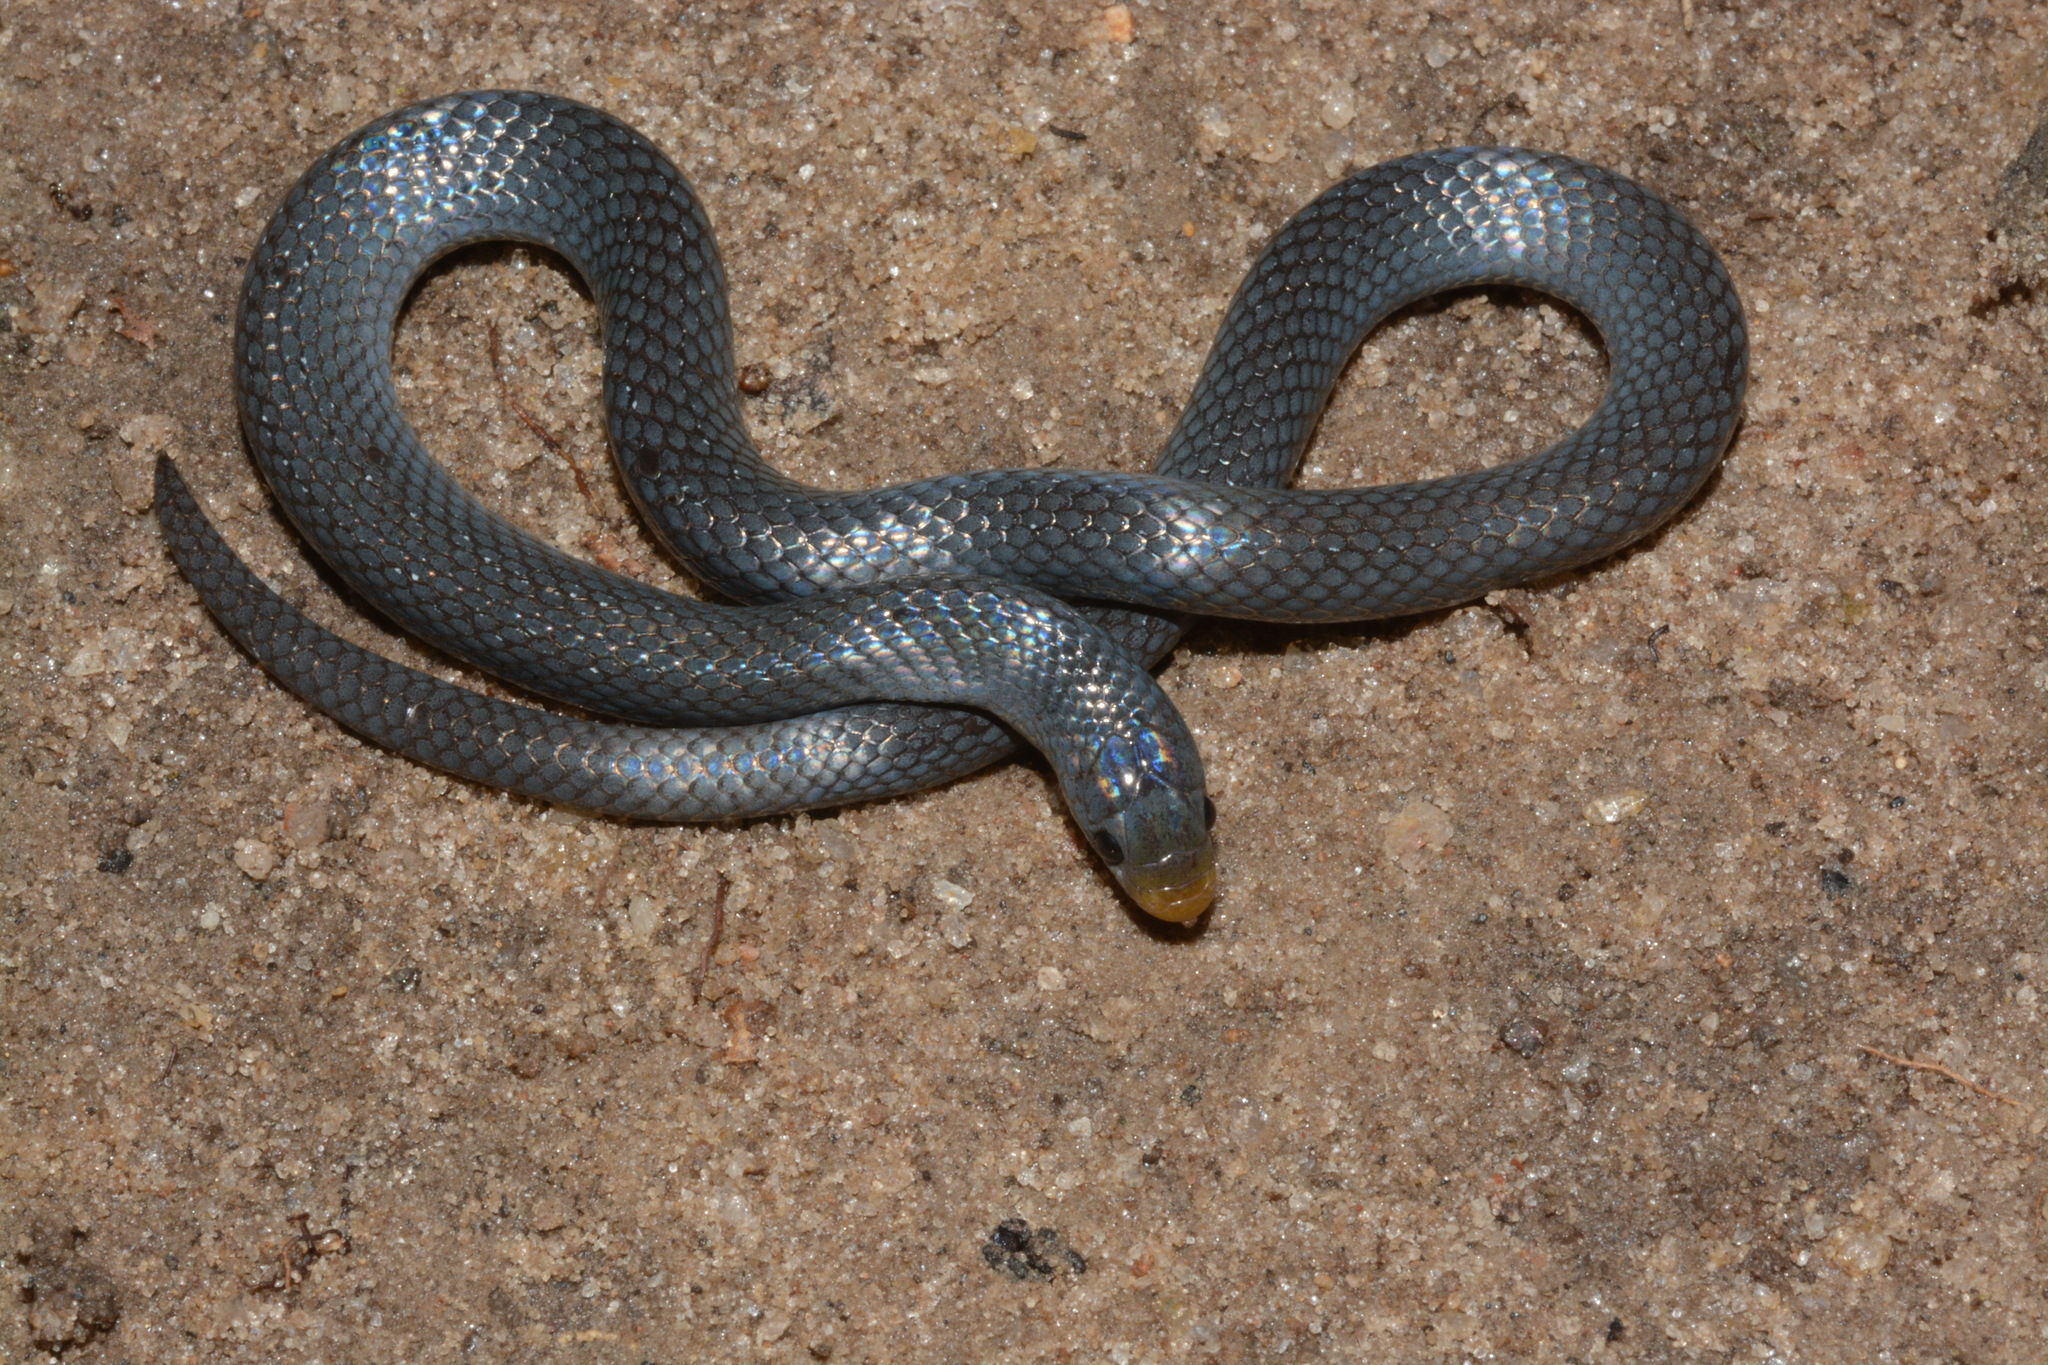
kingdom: Animalia
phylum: Chordata
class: Squamata
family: Prosymnidae
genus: Prosymna
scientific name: Prosymna stuhlmanni
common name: East african shovel-snout snake
